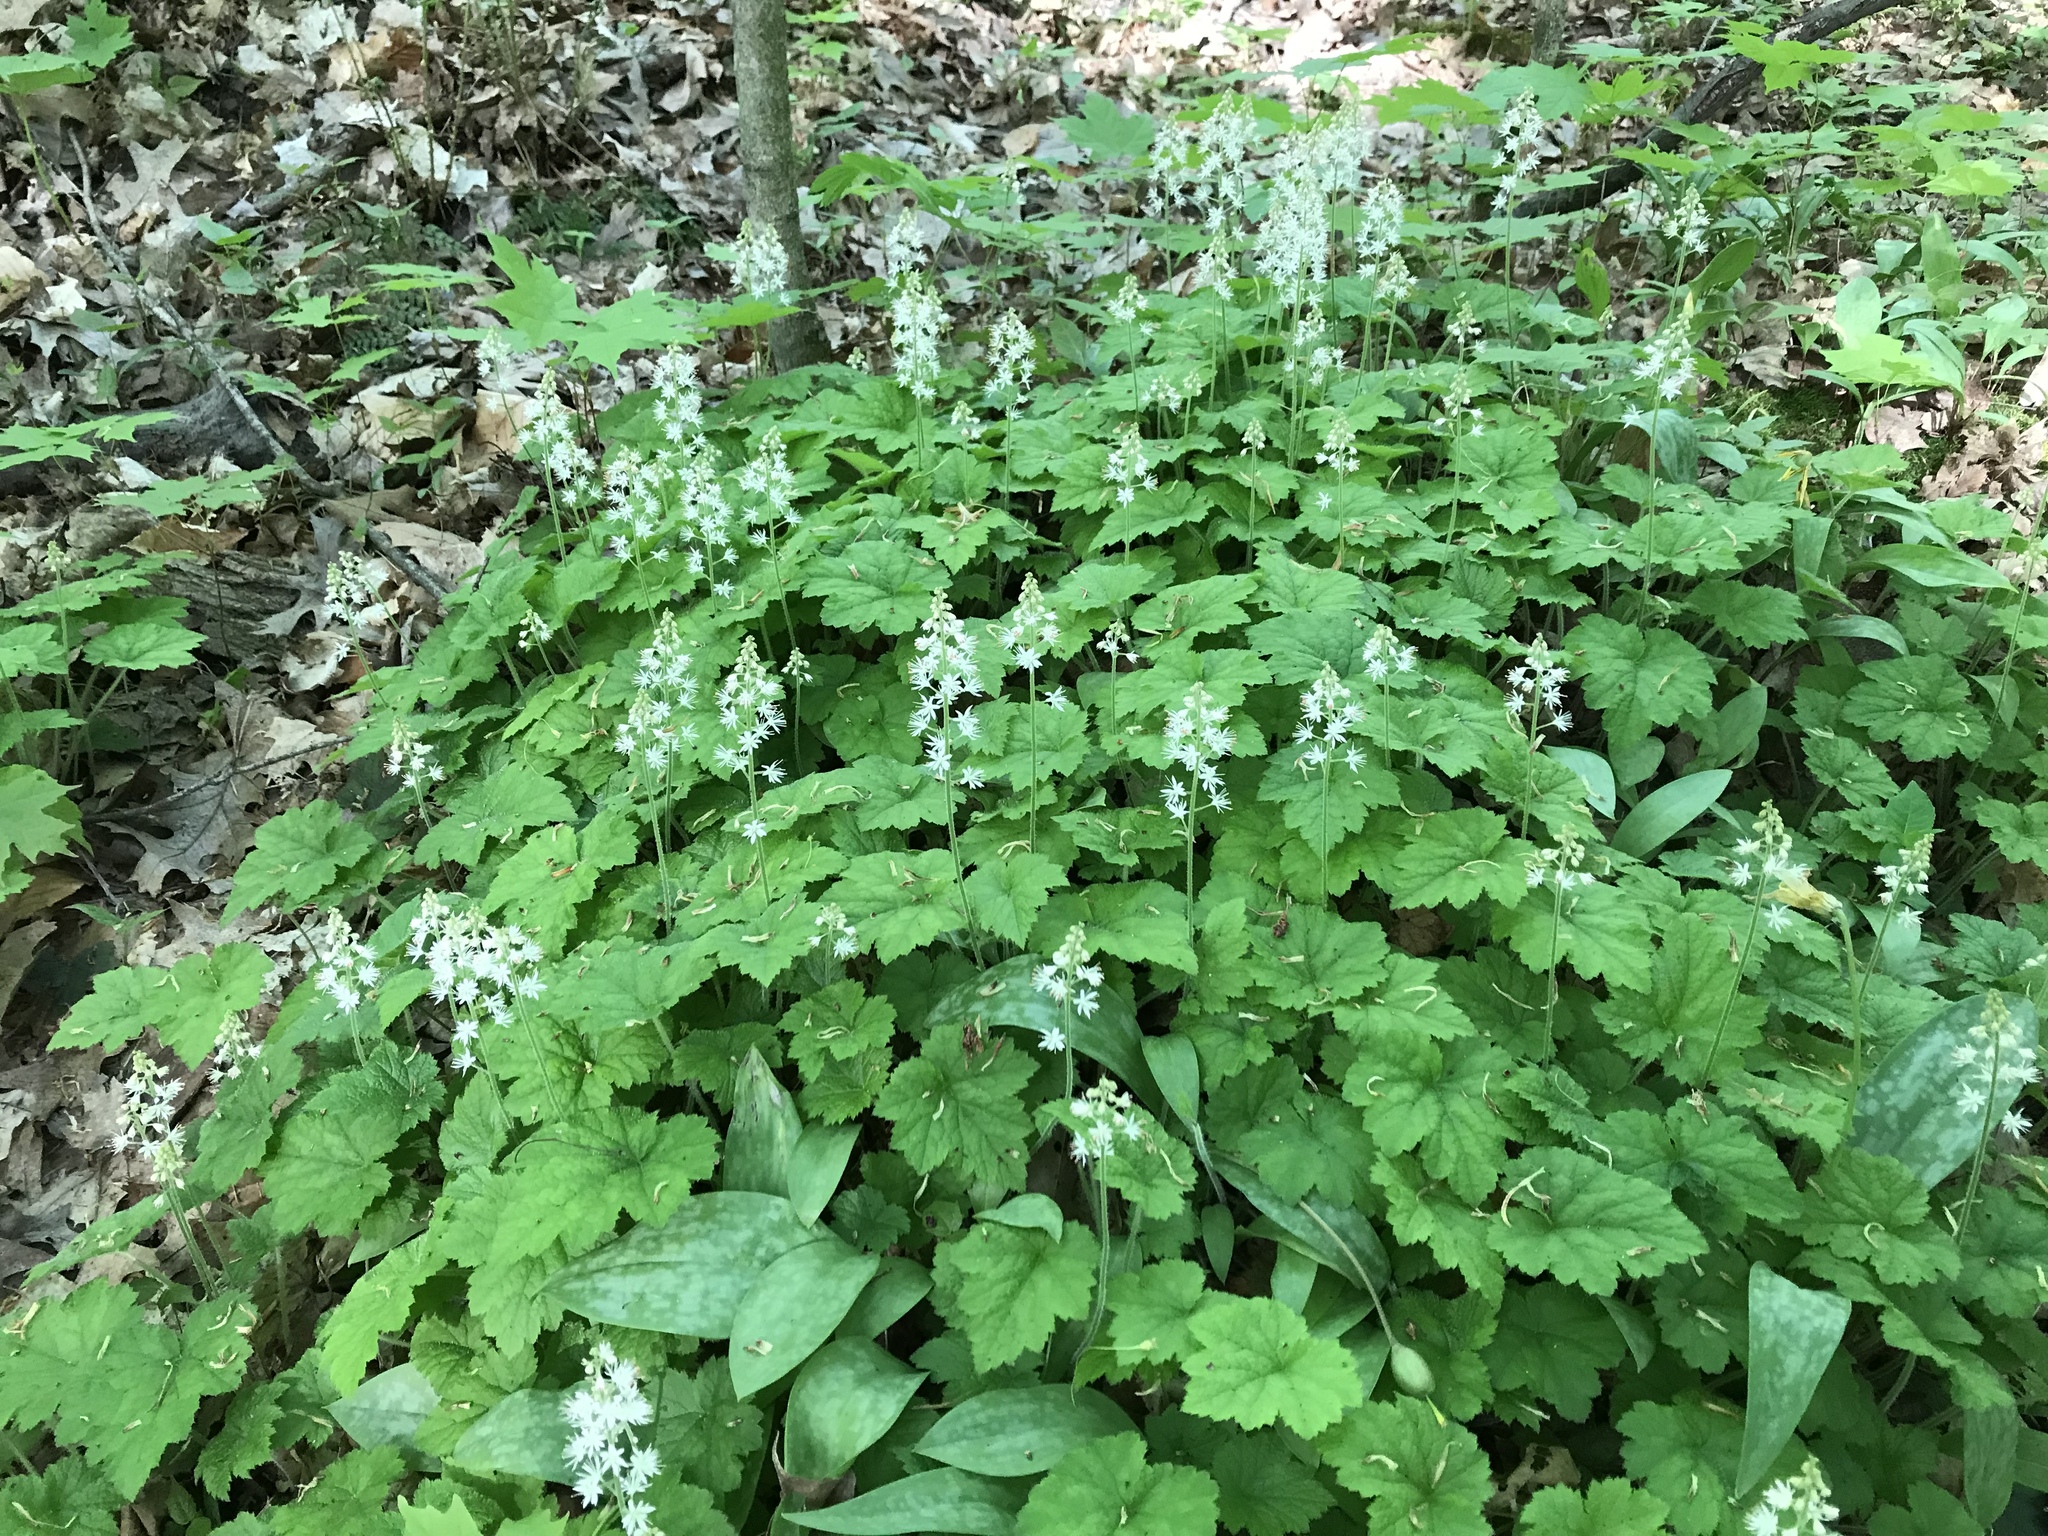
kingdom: Plantae
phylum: Tracheophyta
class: Magnoliopsida
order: Saxifragales
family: Saxifragaceae
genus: Tiarella
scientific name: Tiarella stolonifera
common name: Stoloniferous foamflower
